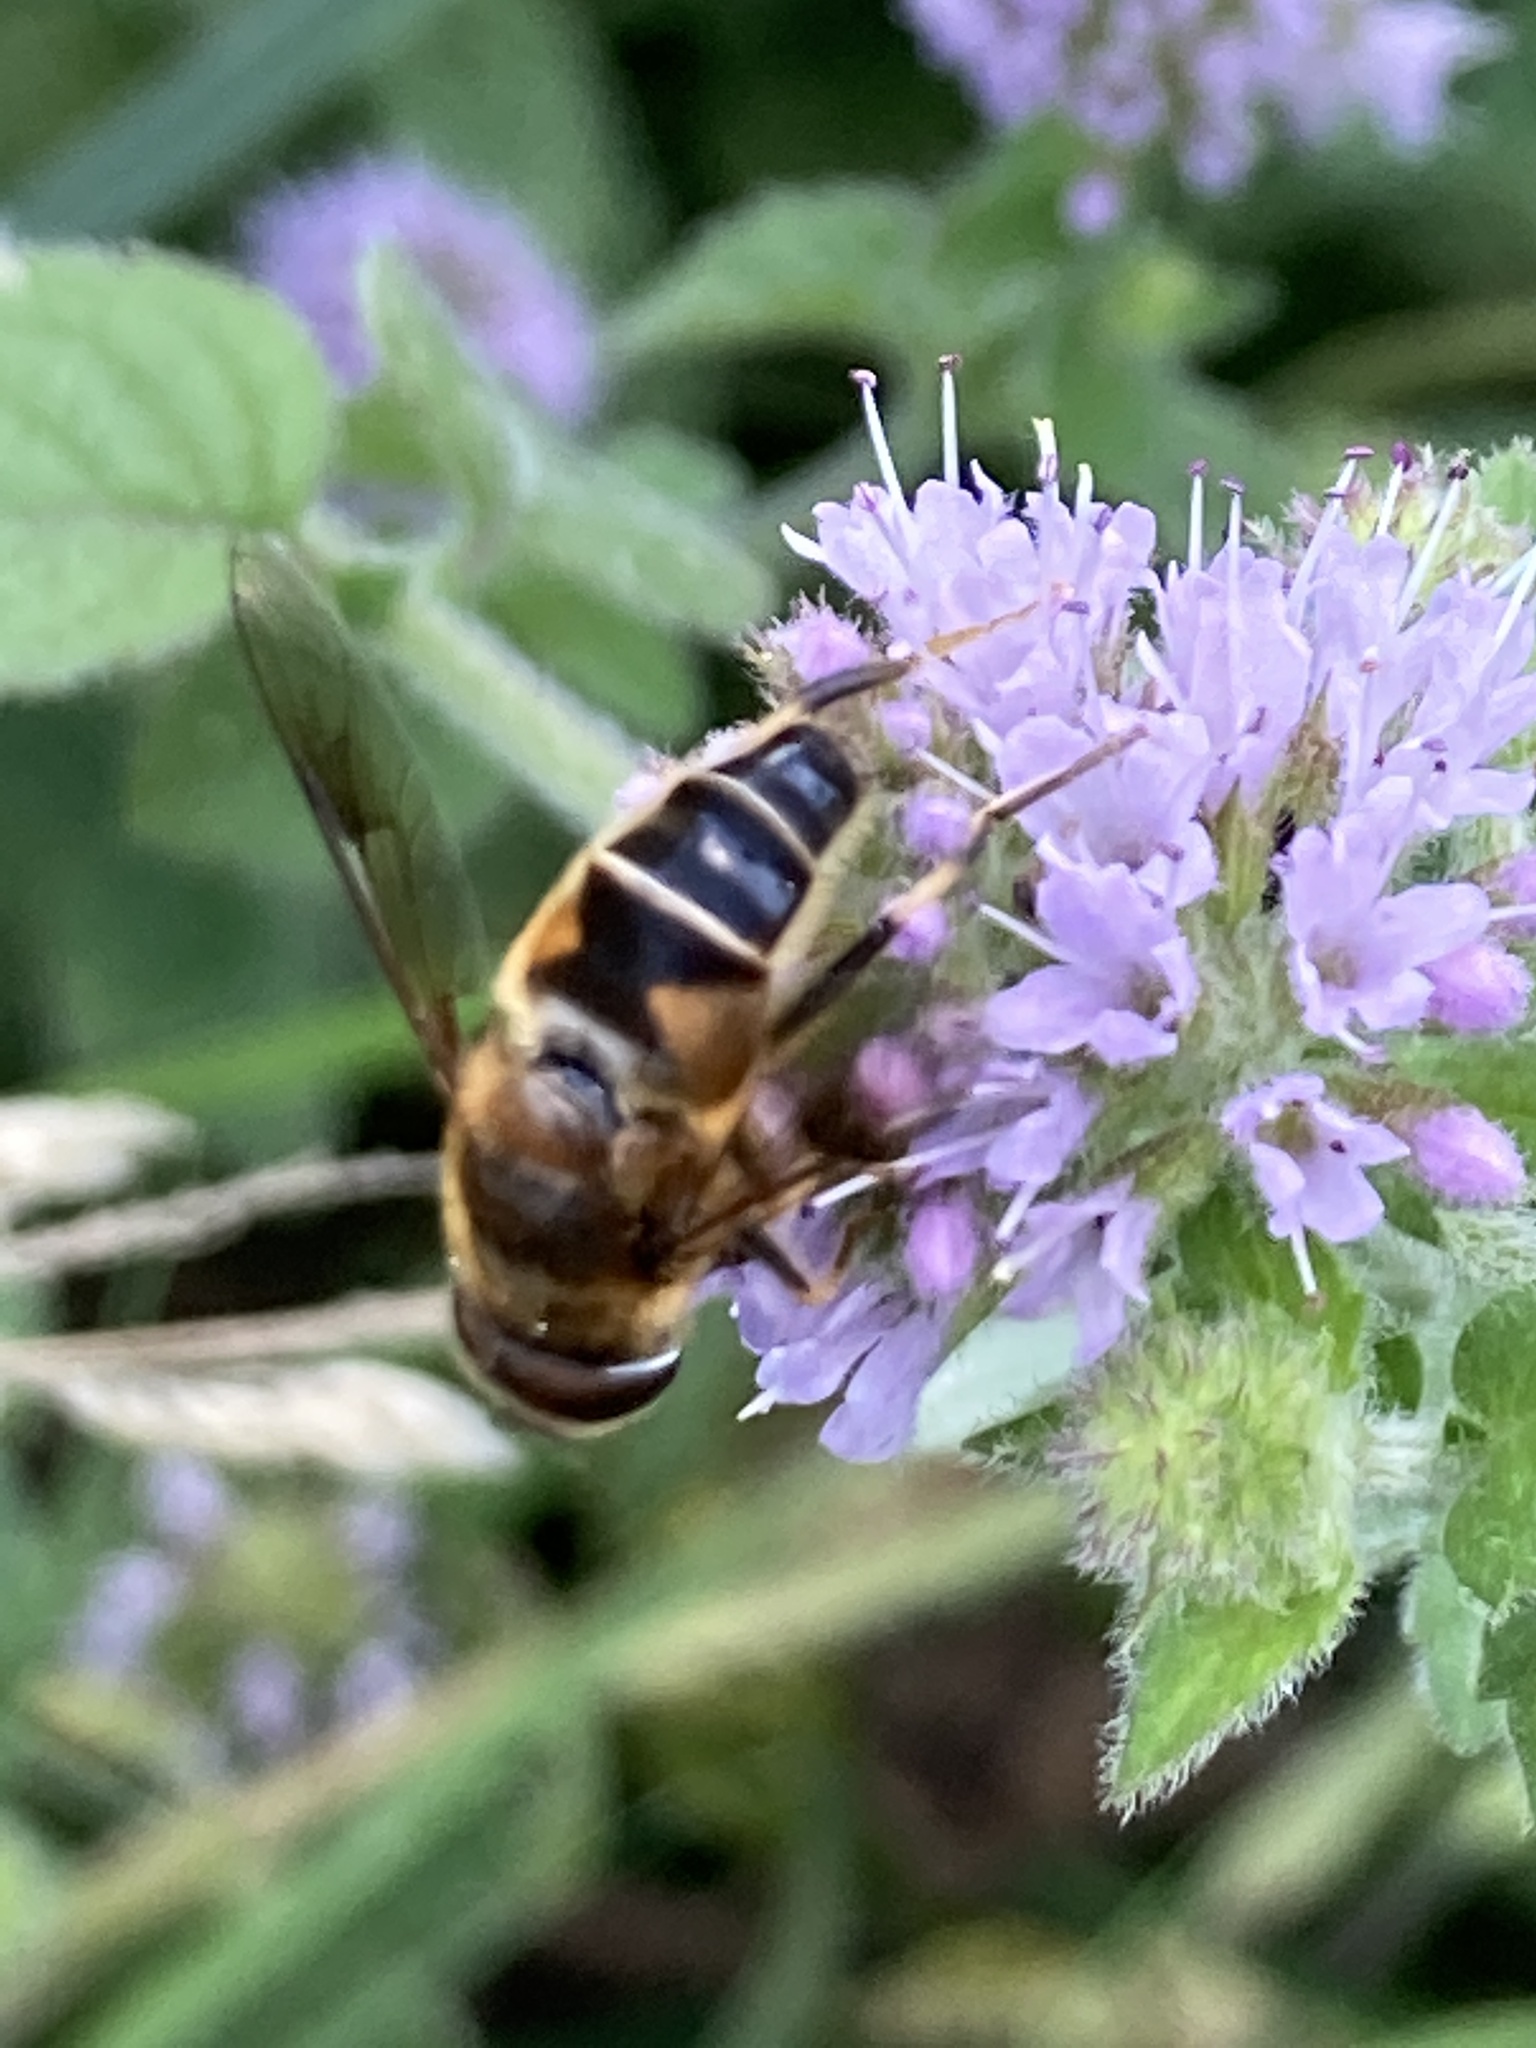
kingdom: Animalia
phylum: Arthropoda
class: Insecta
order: Diptera
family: Syrphidae
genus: Eristalis
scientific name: Eristalis pertinax
